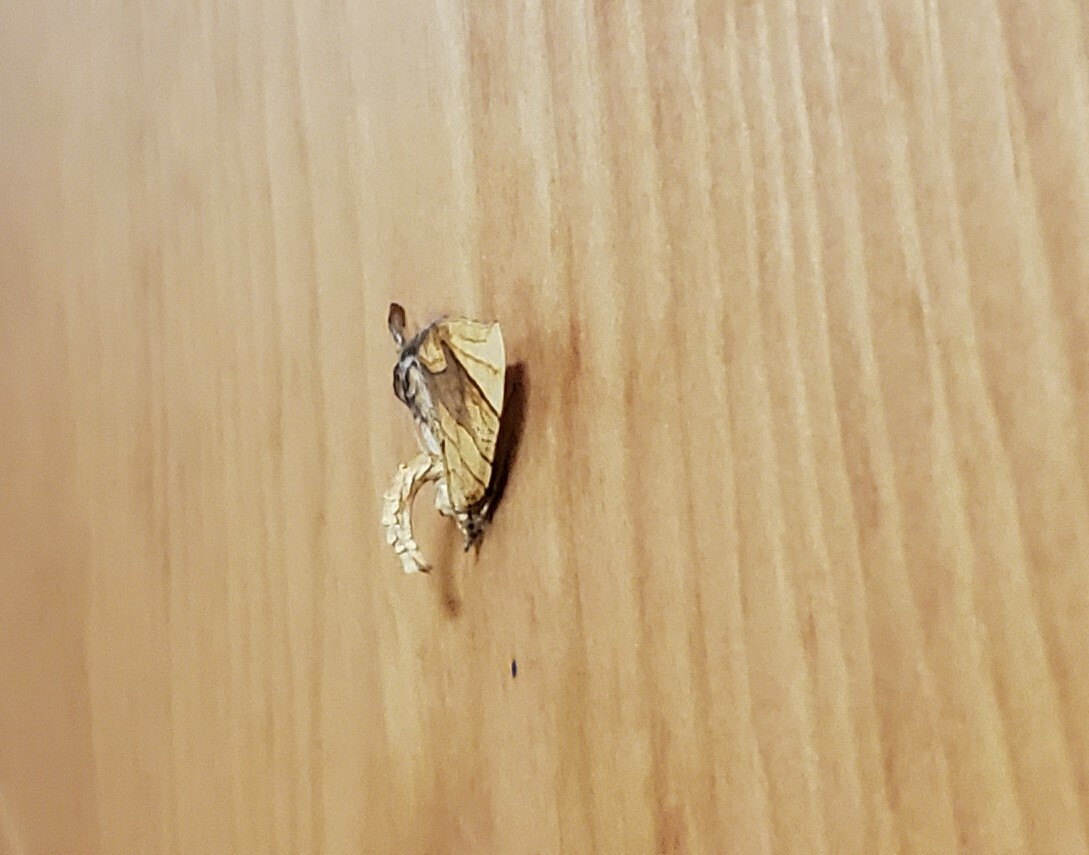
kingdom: Animalia
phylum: Arthropoda
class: Insecta
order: Lepidoptera
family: Geometridae
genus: Eulithis
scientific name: Eulithis diversilineata
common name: Grapevine looper
